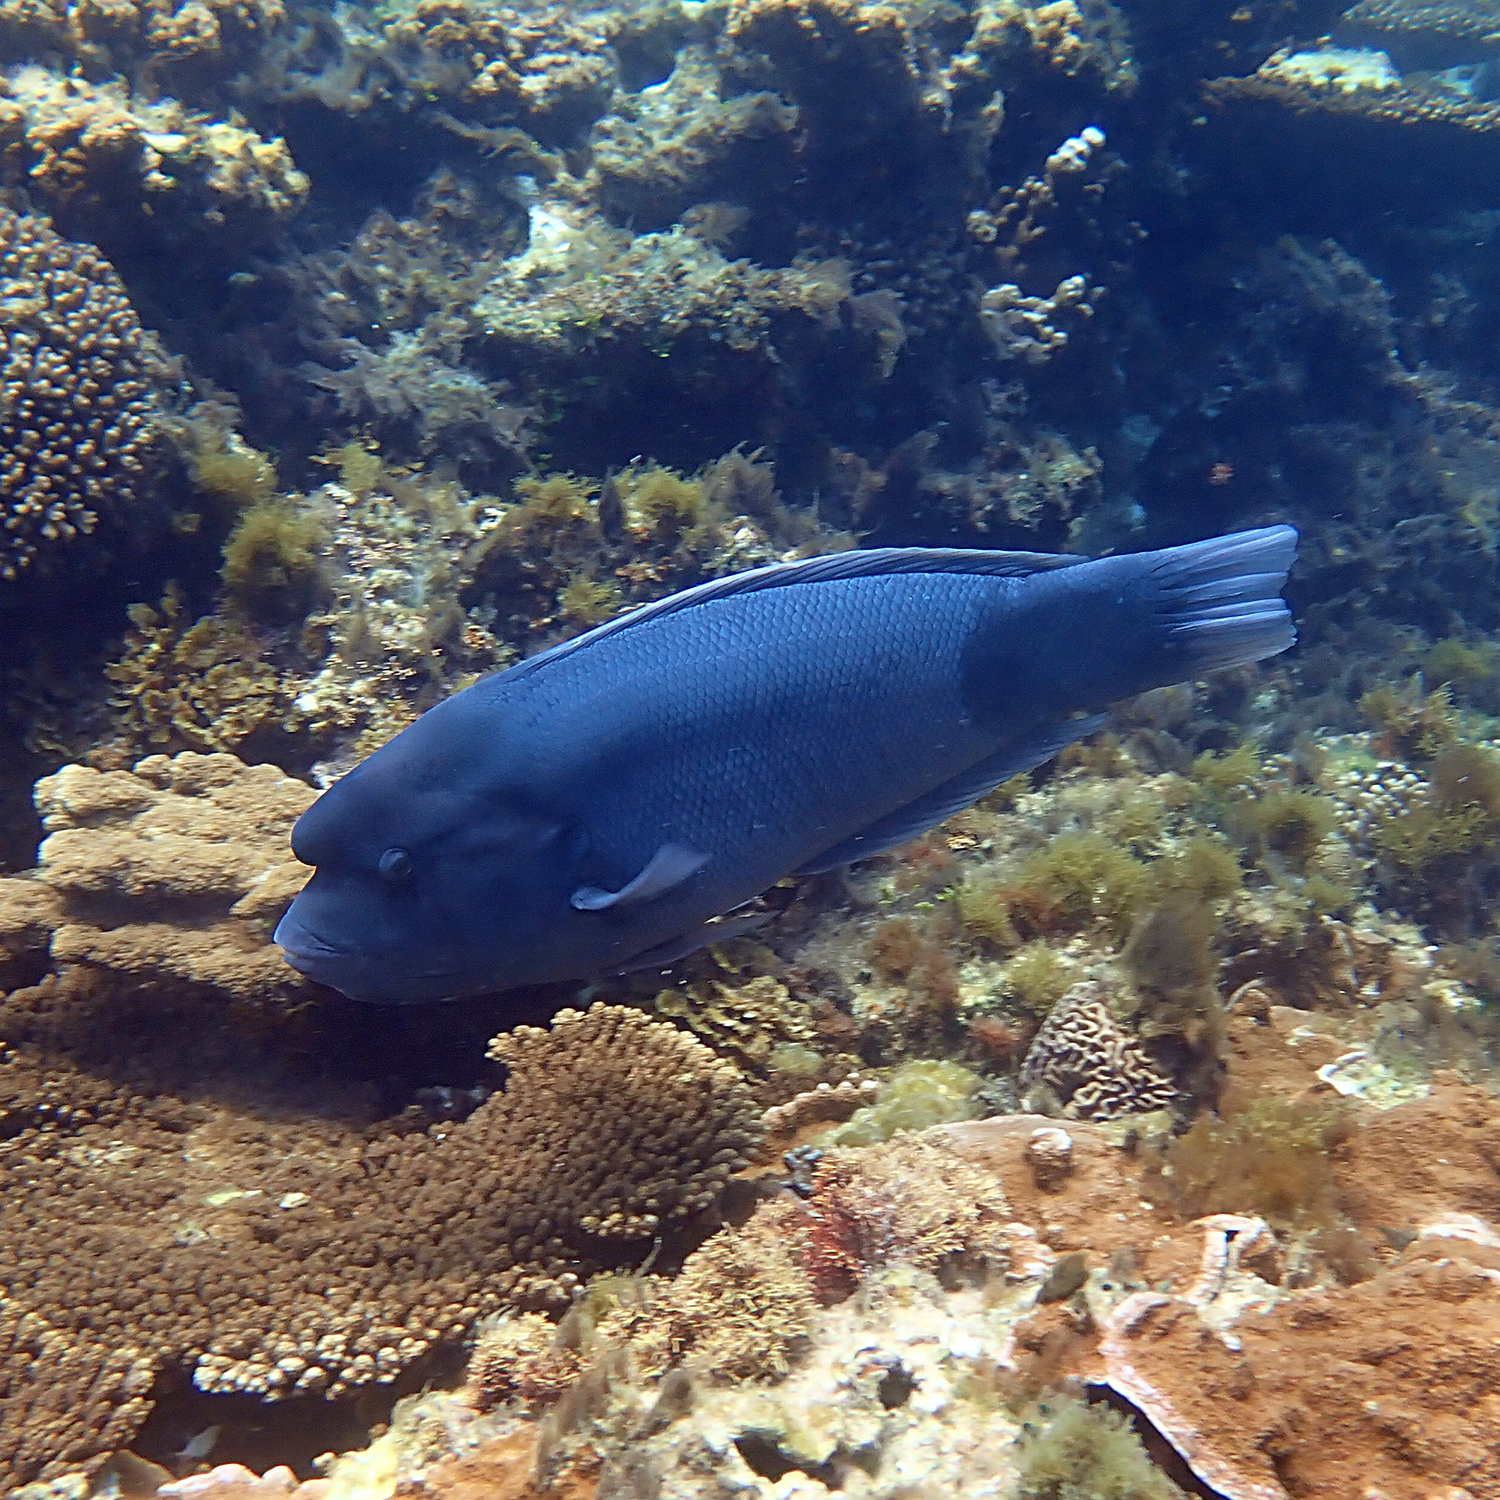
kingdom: Animalia
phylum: Chordata
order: Perciformes
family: Labridae
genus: Coris
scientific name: Coris bulbifrons
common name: Doubleheader
